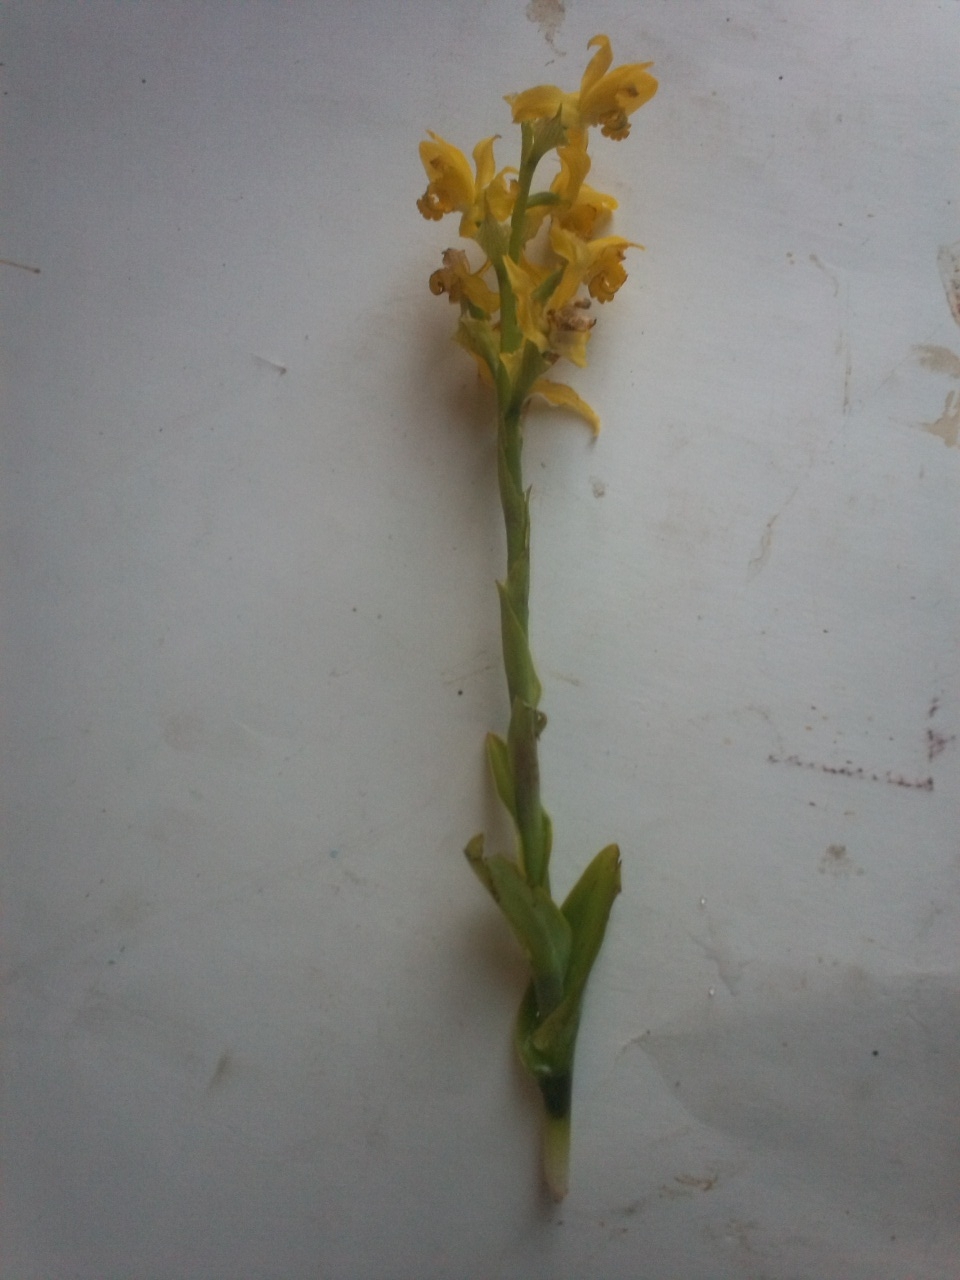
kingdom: Plantae
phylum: Tracheophyta
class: Liliopsida
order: Asparagales
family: Orchidaceae
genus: Chloraea
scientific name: Chloraea multilineolata
